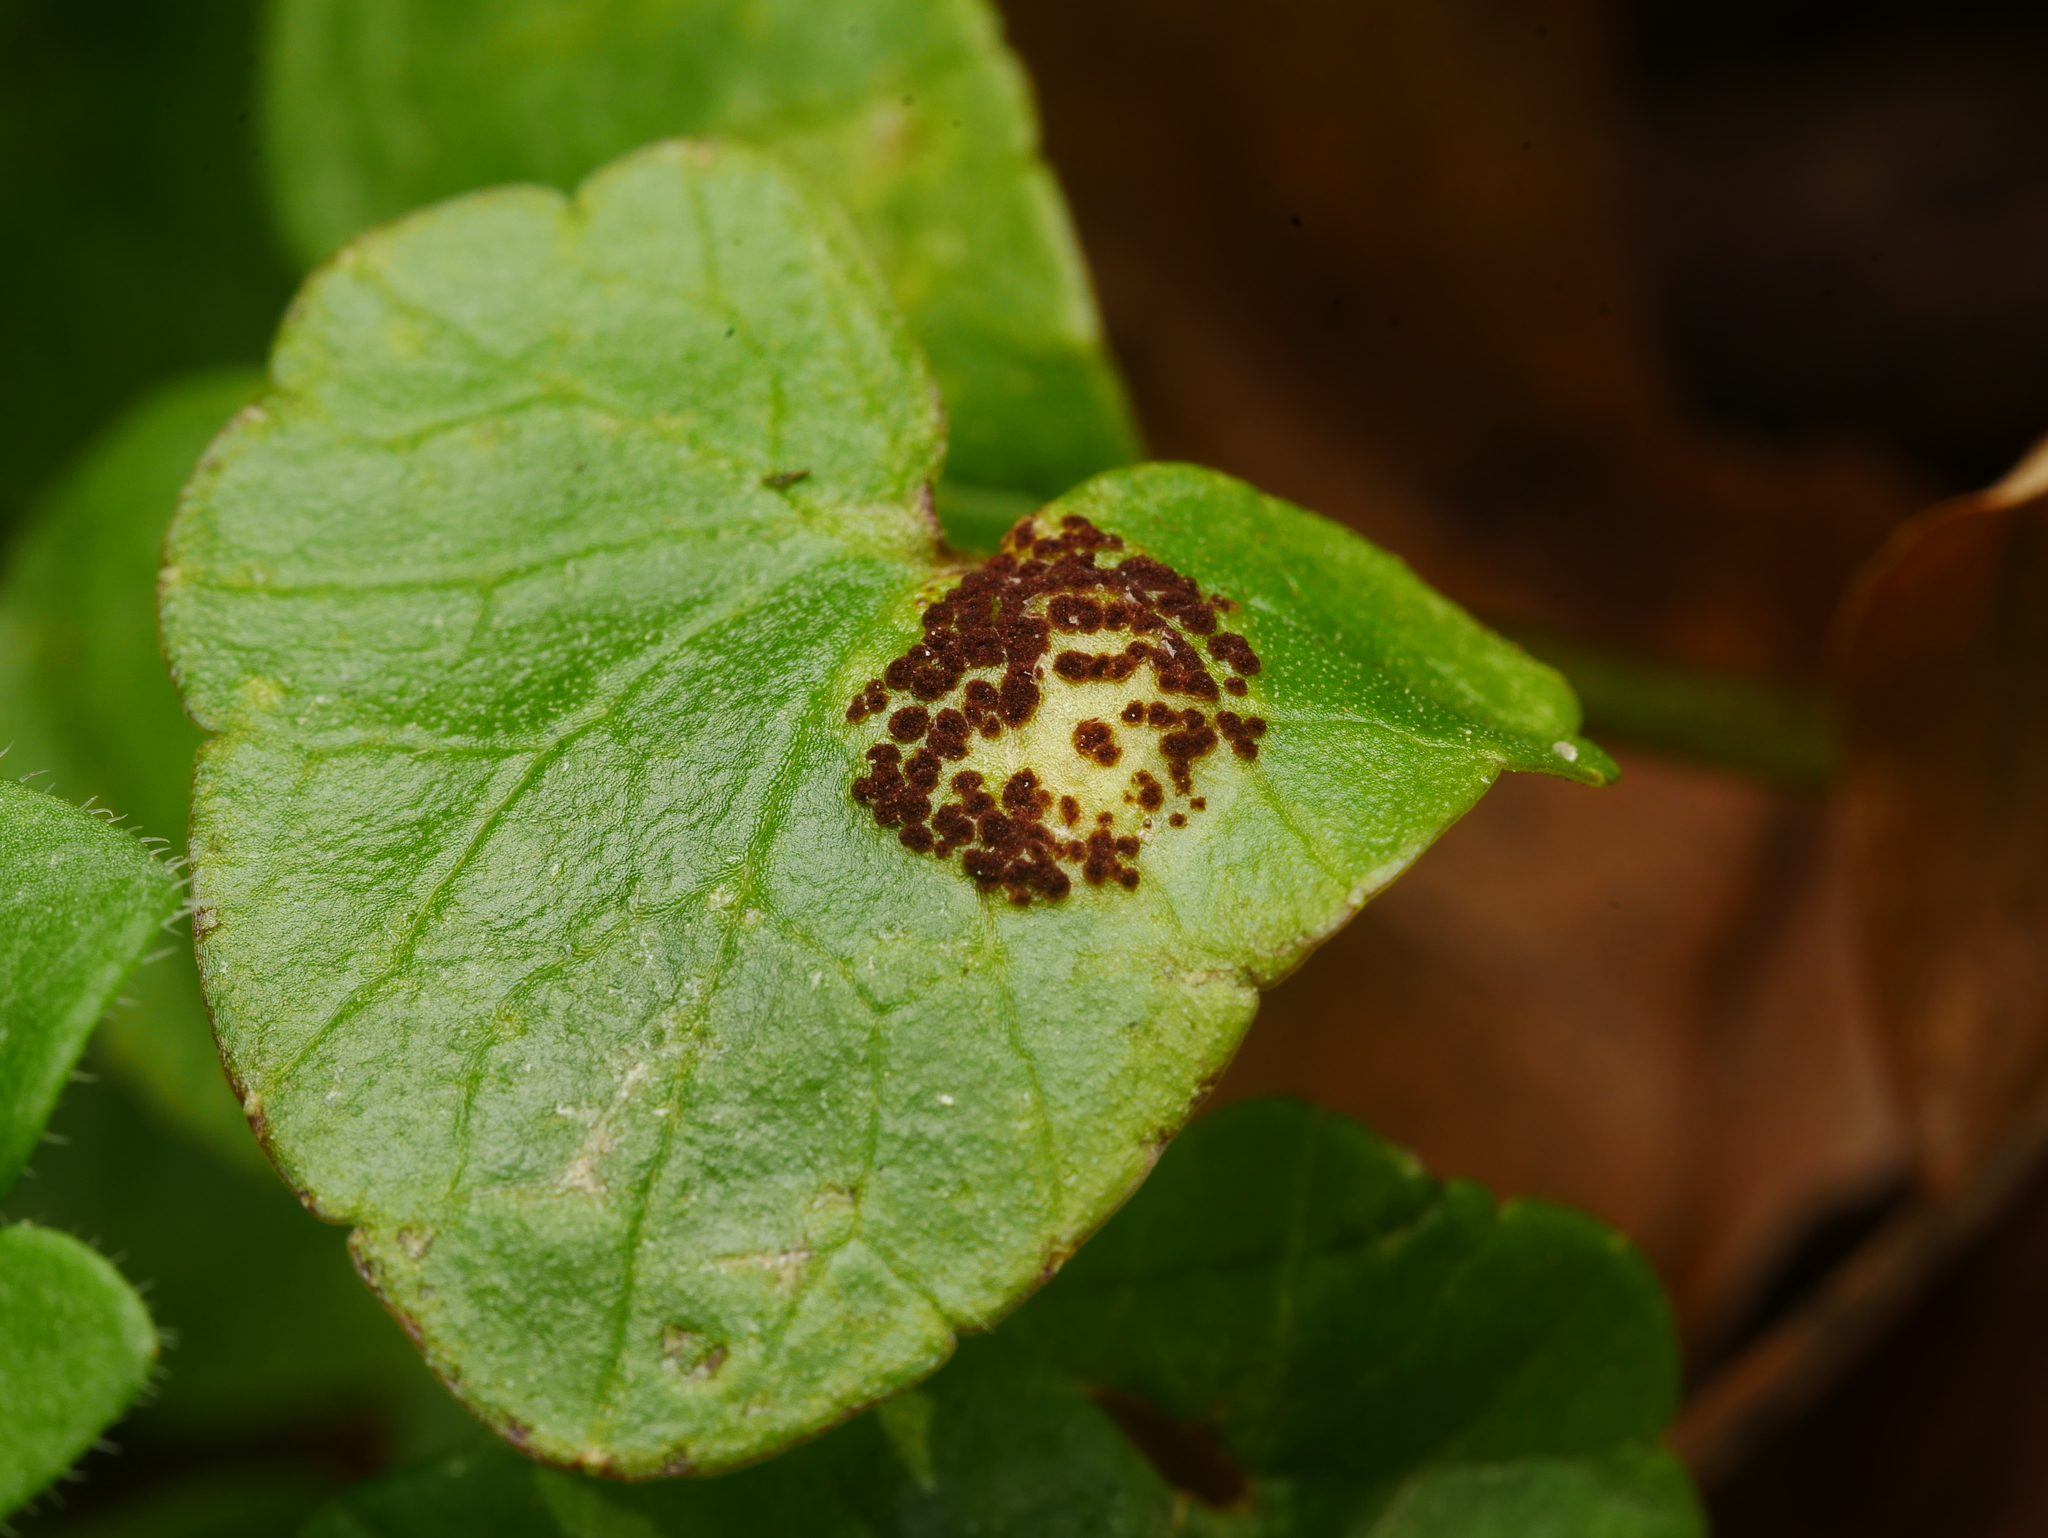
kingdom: Fungi
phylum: Basidiomycota
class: Pucciniomycetes
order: Pucciniales
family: Pucciniaceae
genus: Uromyces
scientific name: Uromyces ficariae
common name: Bitter chocolate rust
